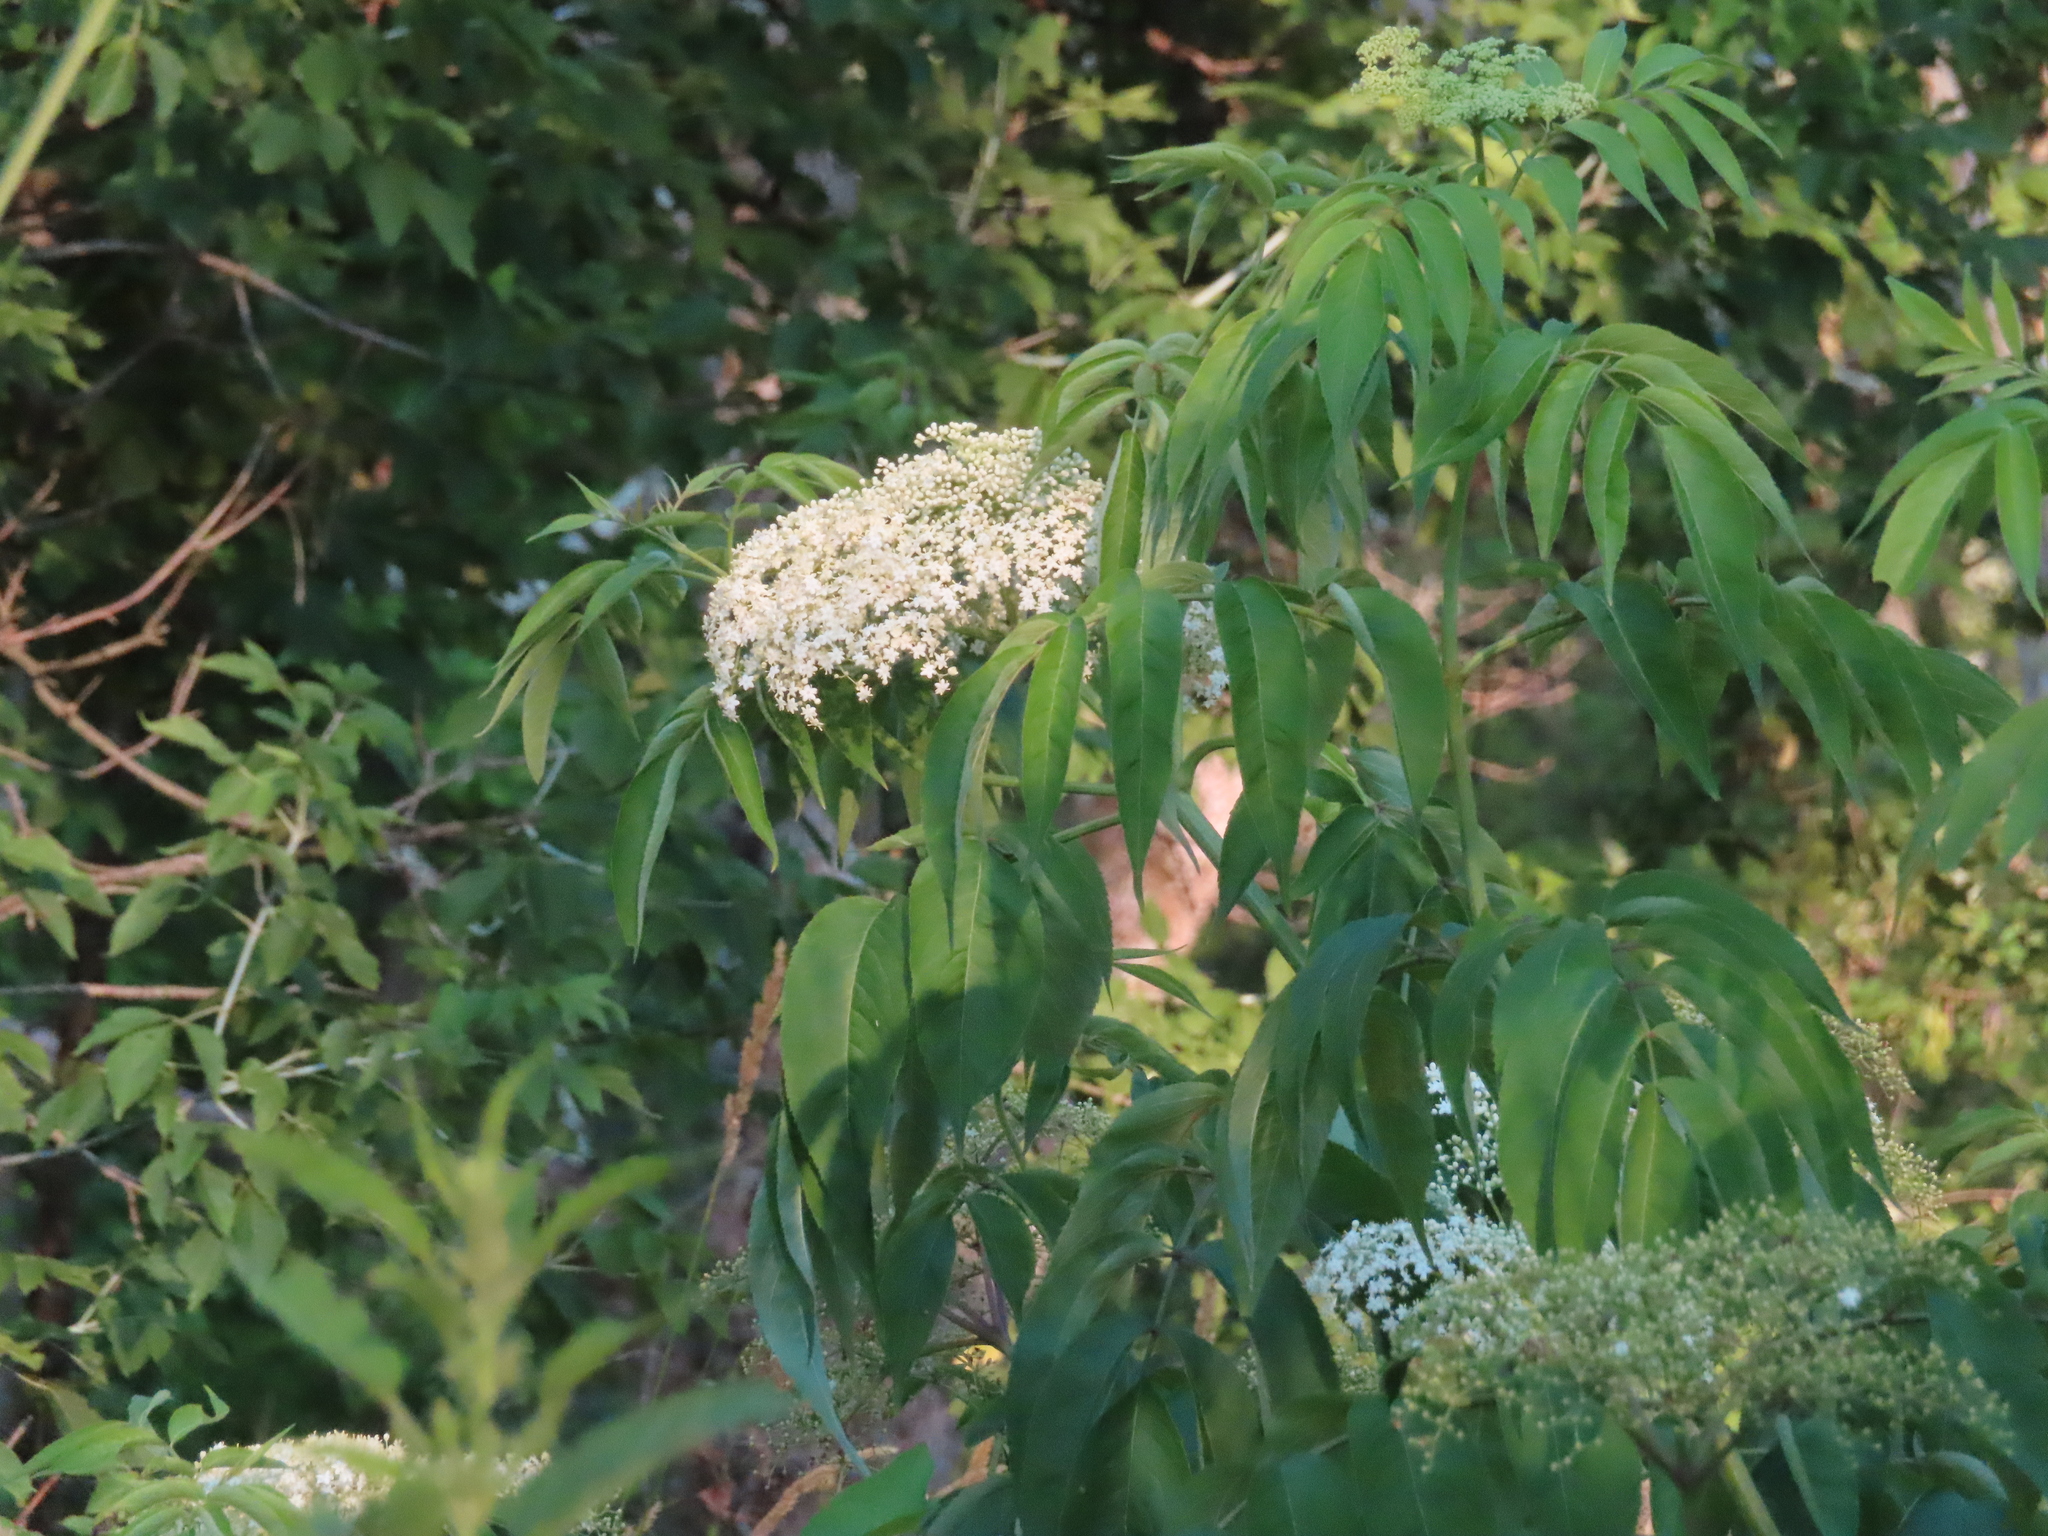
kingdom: Plantae
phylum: Tracheophyta
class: Magnoliopsida
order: Dipsacales
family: Viburnaceae
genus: Sambucus
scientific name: Sambucus canadensis
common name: American elder
